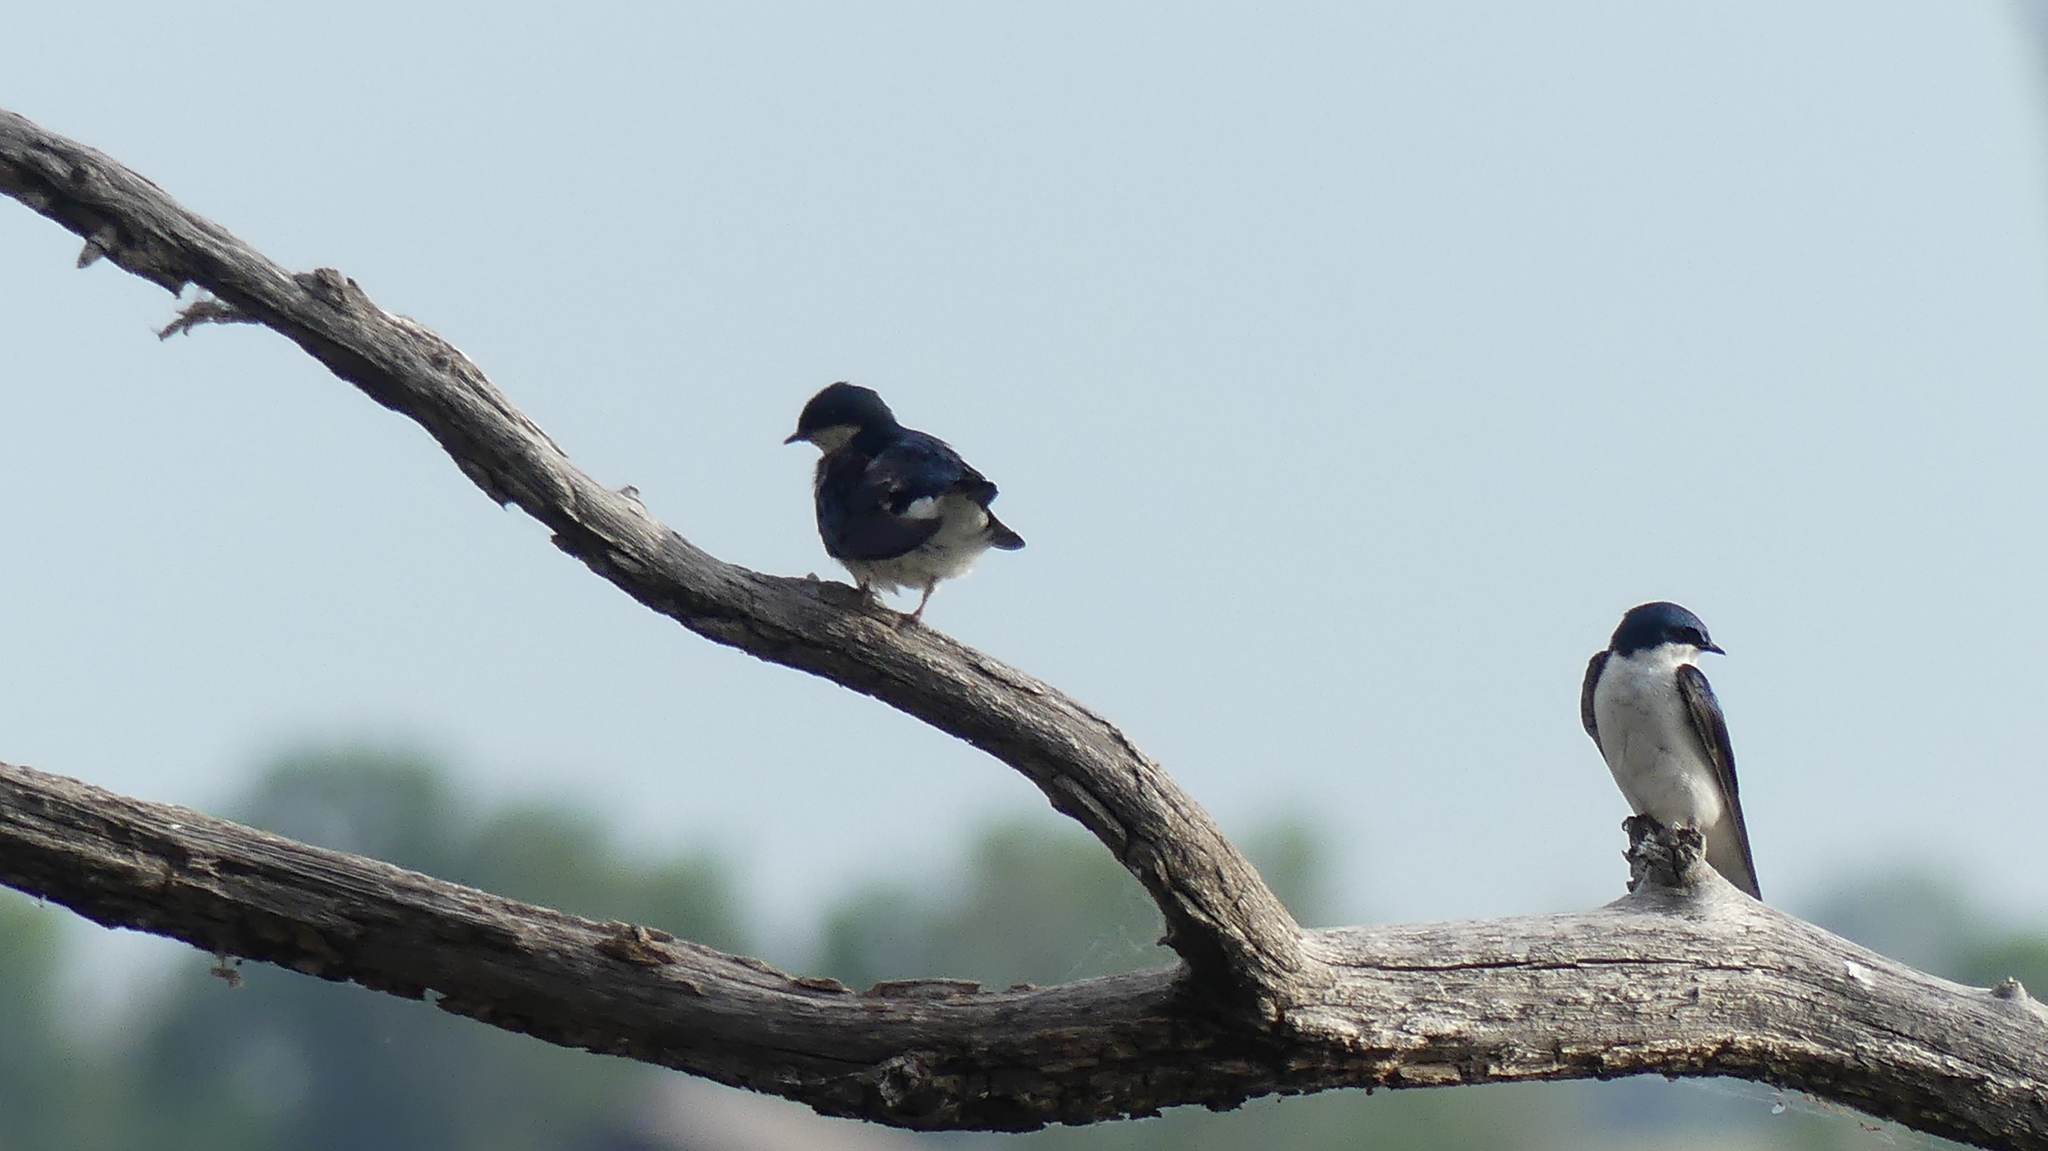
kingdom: Animalia
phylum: Chordata
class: Aves
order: Passeriformes
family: Hirundinidae
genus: Tachycineta
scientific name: Tachycineta bicolor
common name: Tree swallow
